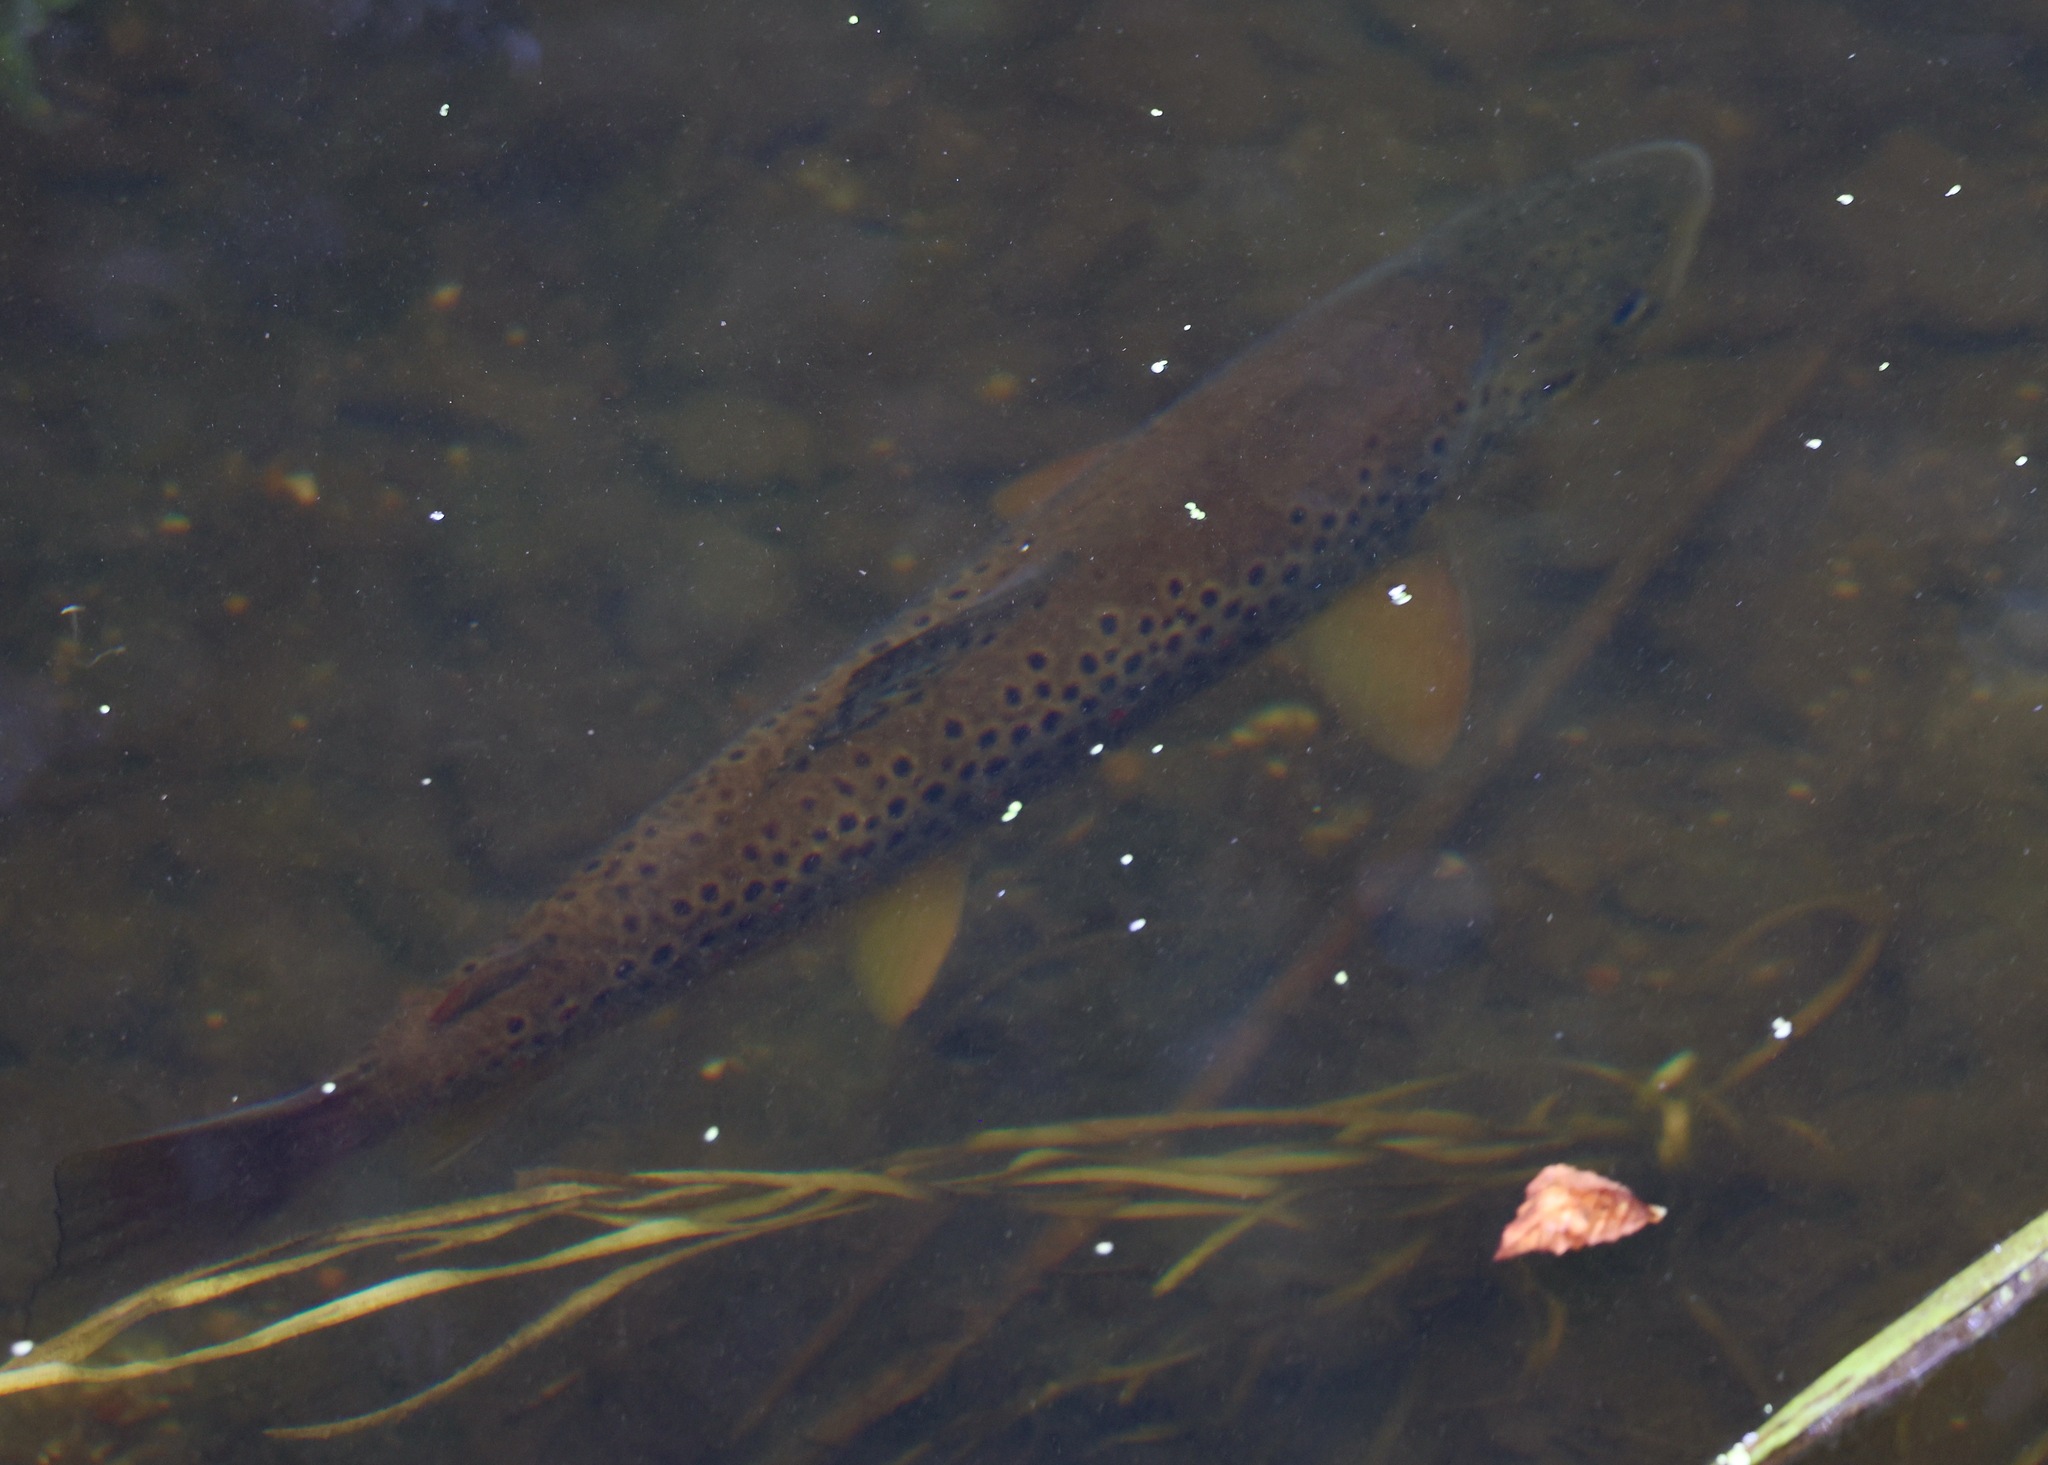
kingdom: Animalia
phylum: Chordata
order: Salmoniformes
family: Salmonidae
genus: Salmo
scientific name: Salmo trutta
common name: Brown trout
